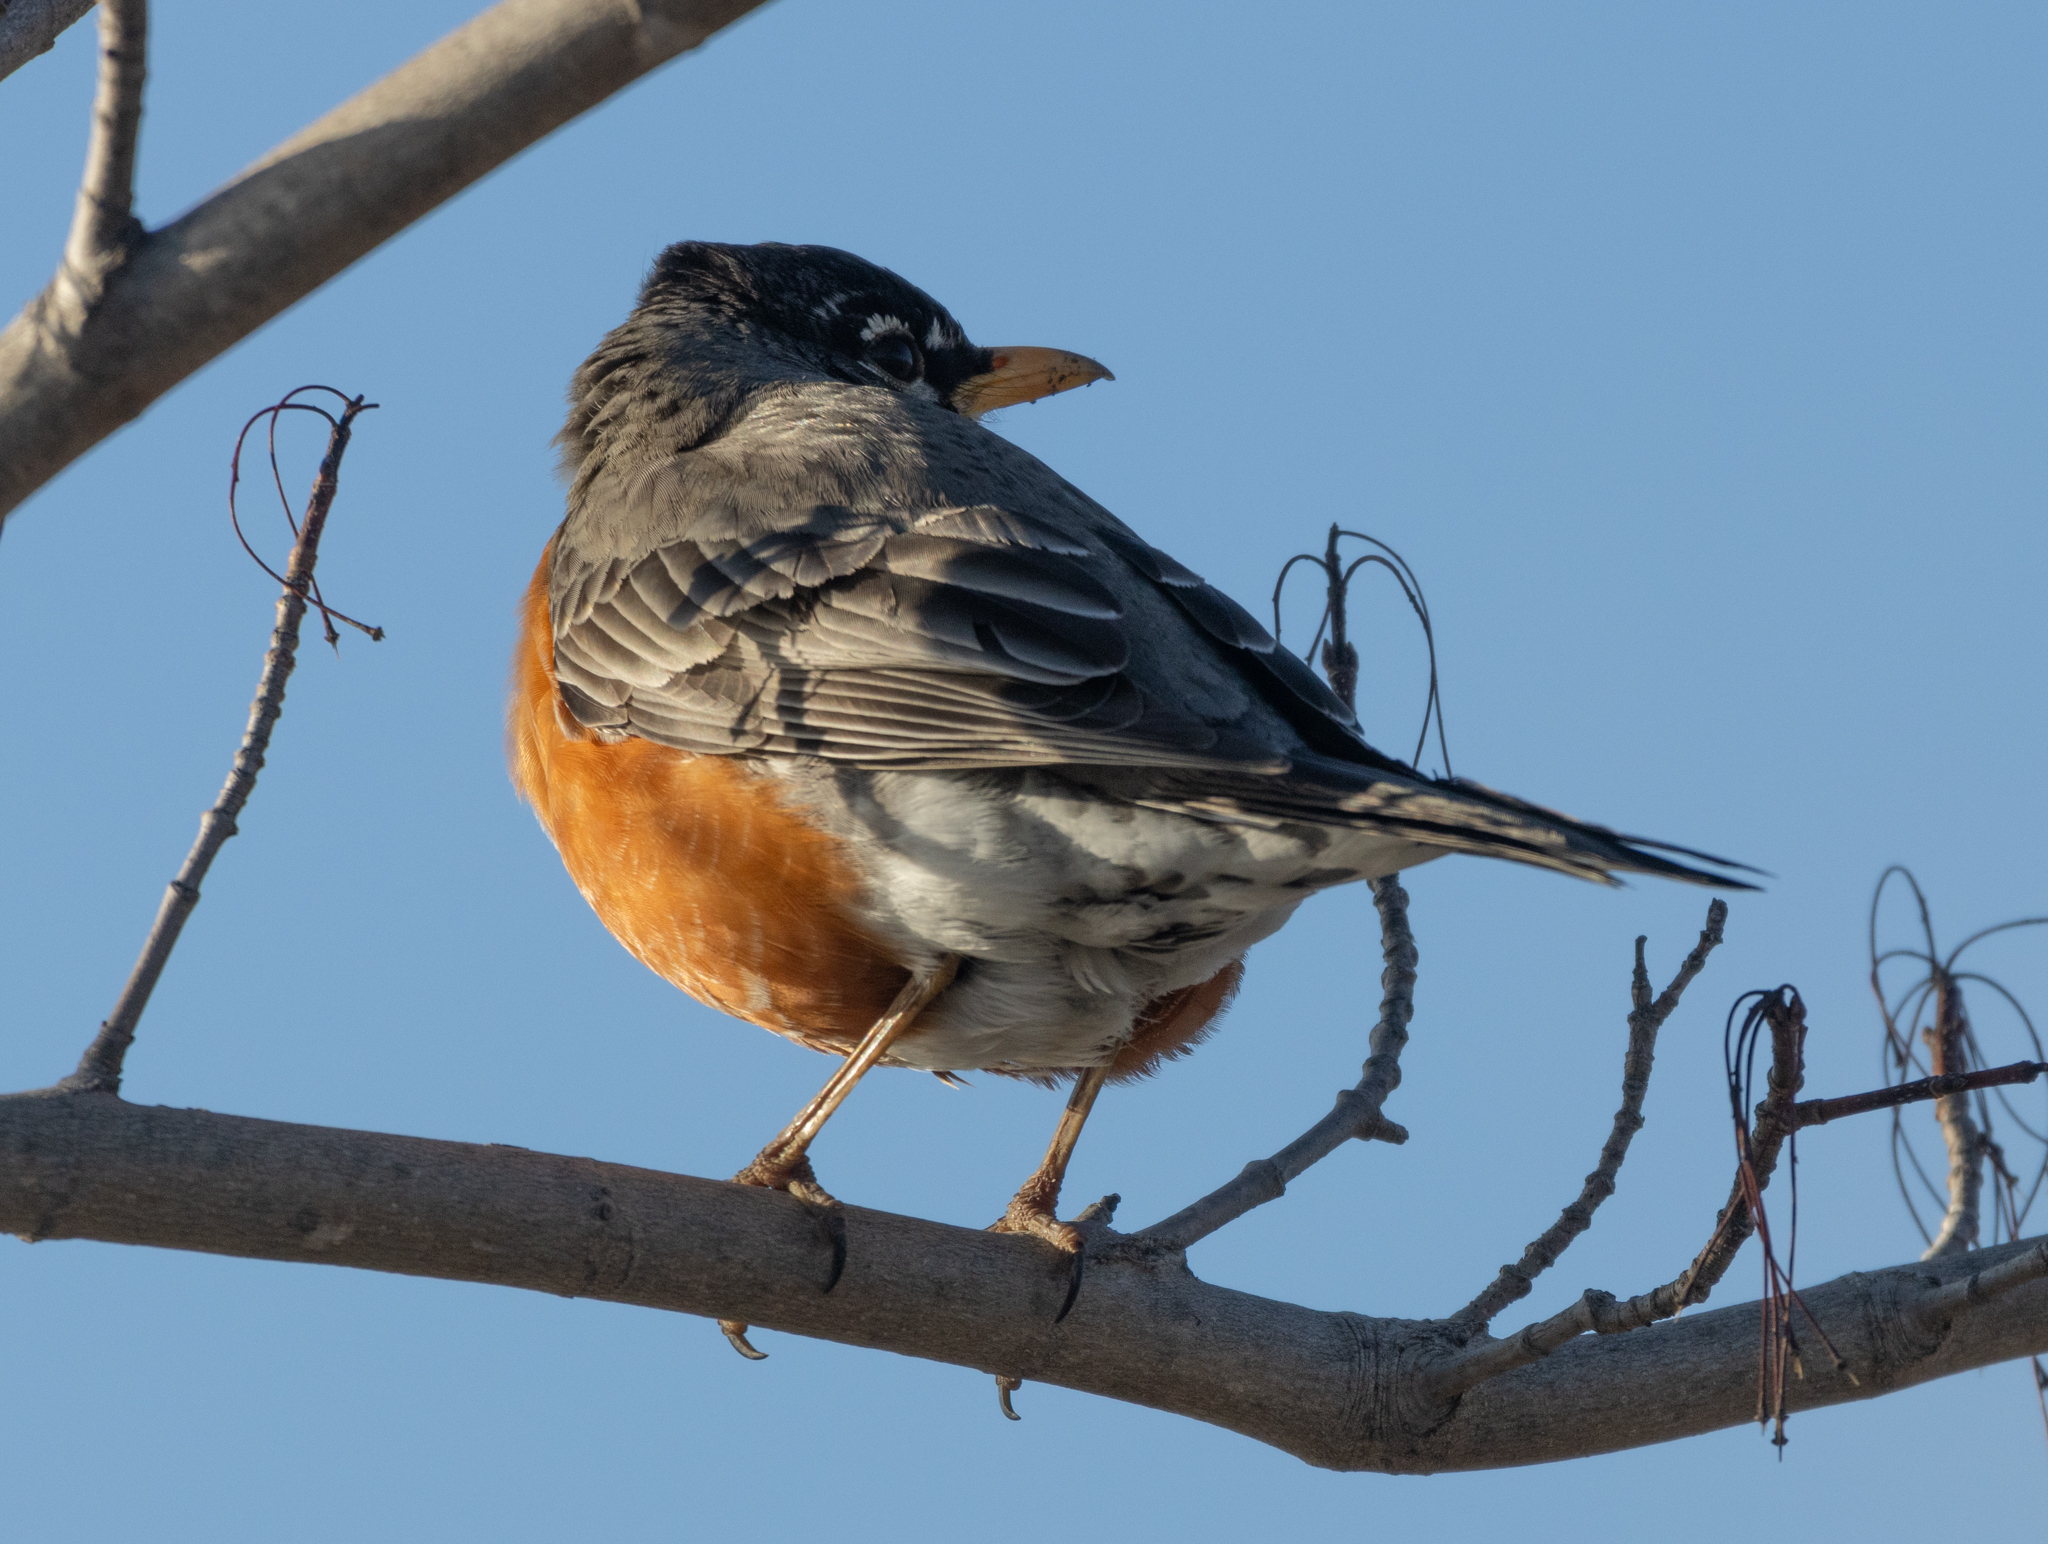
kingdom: Animalia
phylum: Chordata
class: Aves
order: Passeriformes
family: Turdidae
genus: Turdus
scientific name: Turdus migratorius
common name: American robin
